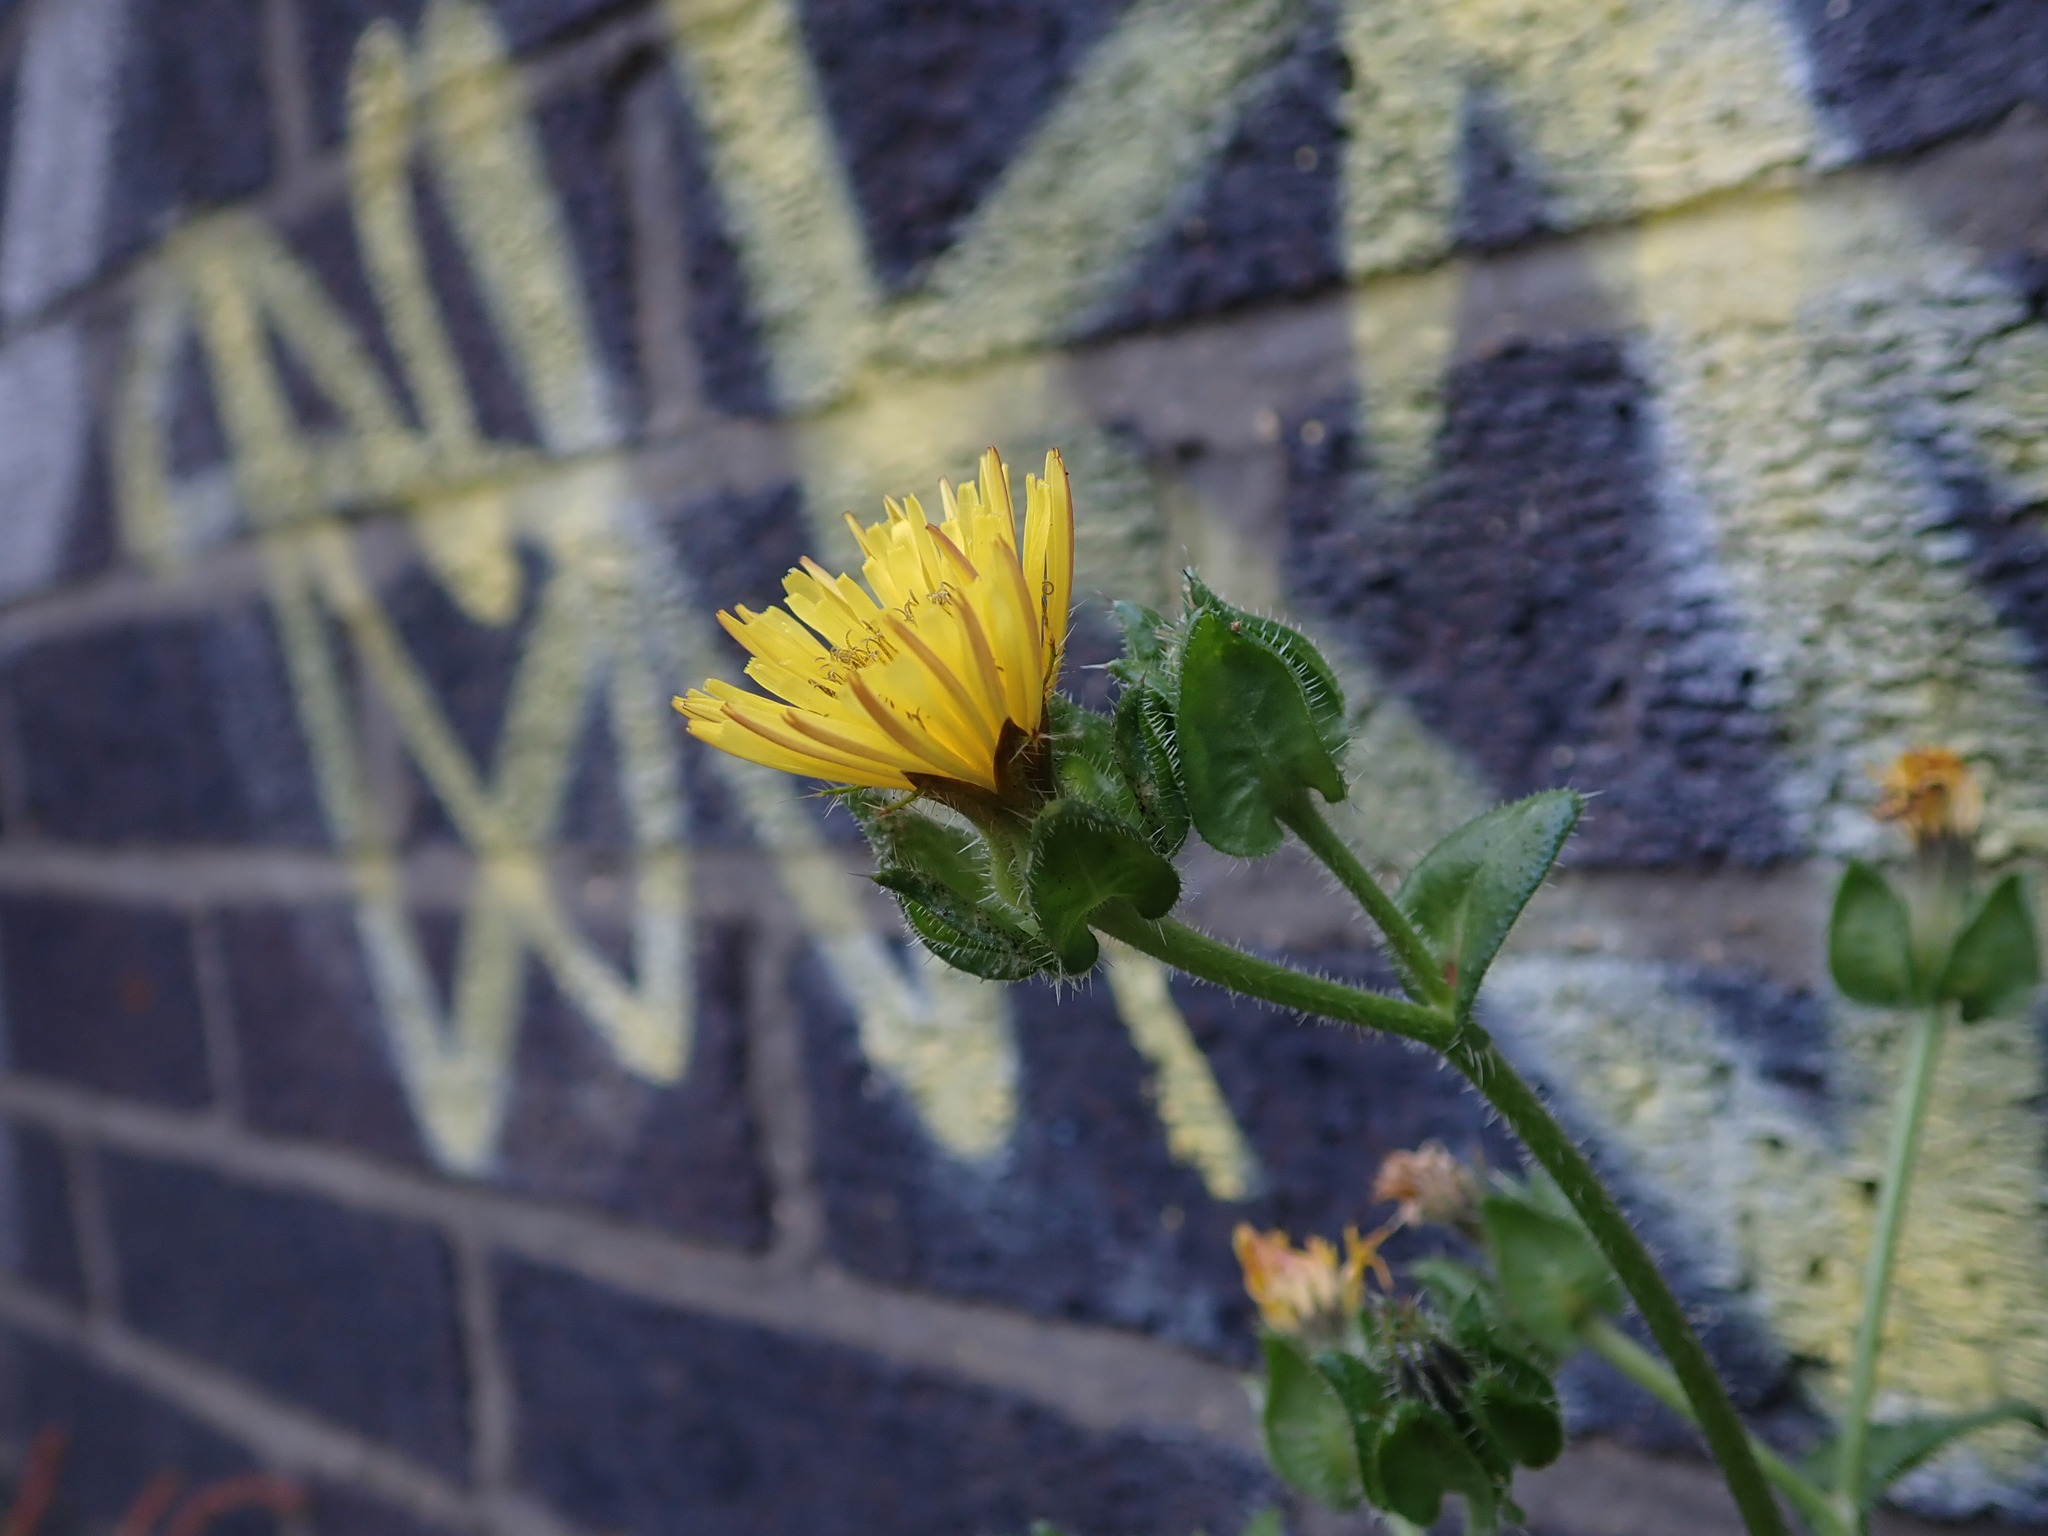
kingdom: Plantae
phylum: Tracheophyta
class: Magnoliopsida
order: Asterales
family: Asteraceae
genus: Helminthotheca
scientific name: Helminthotheca echioides
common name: Ox-tongue
